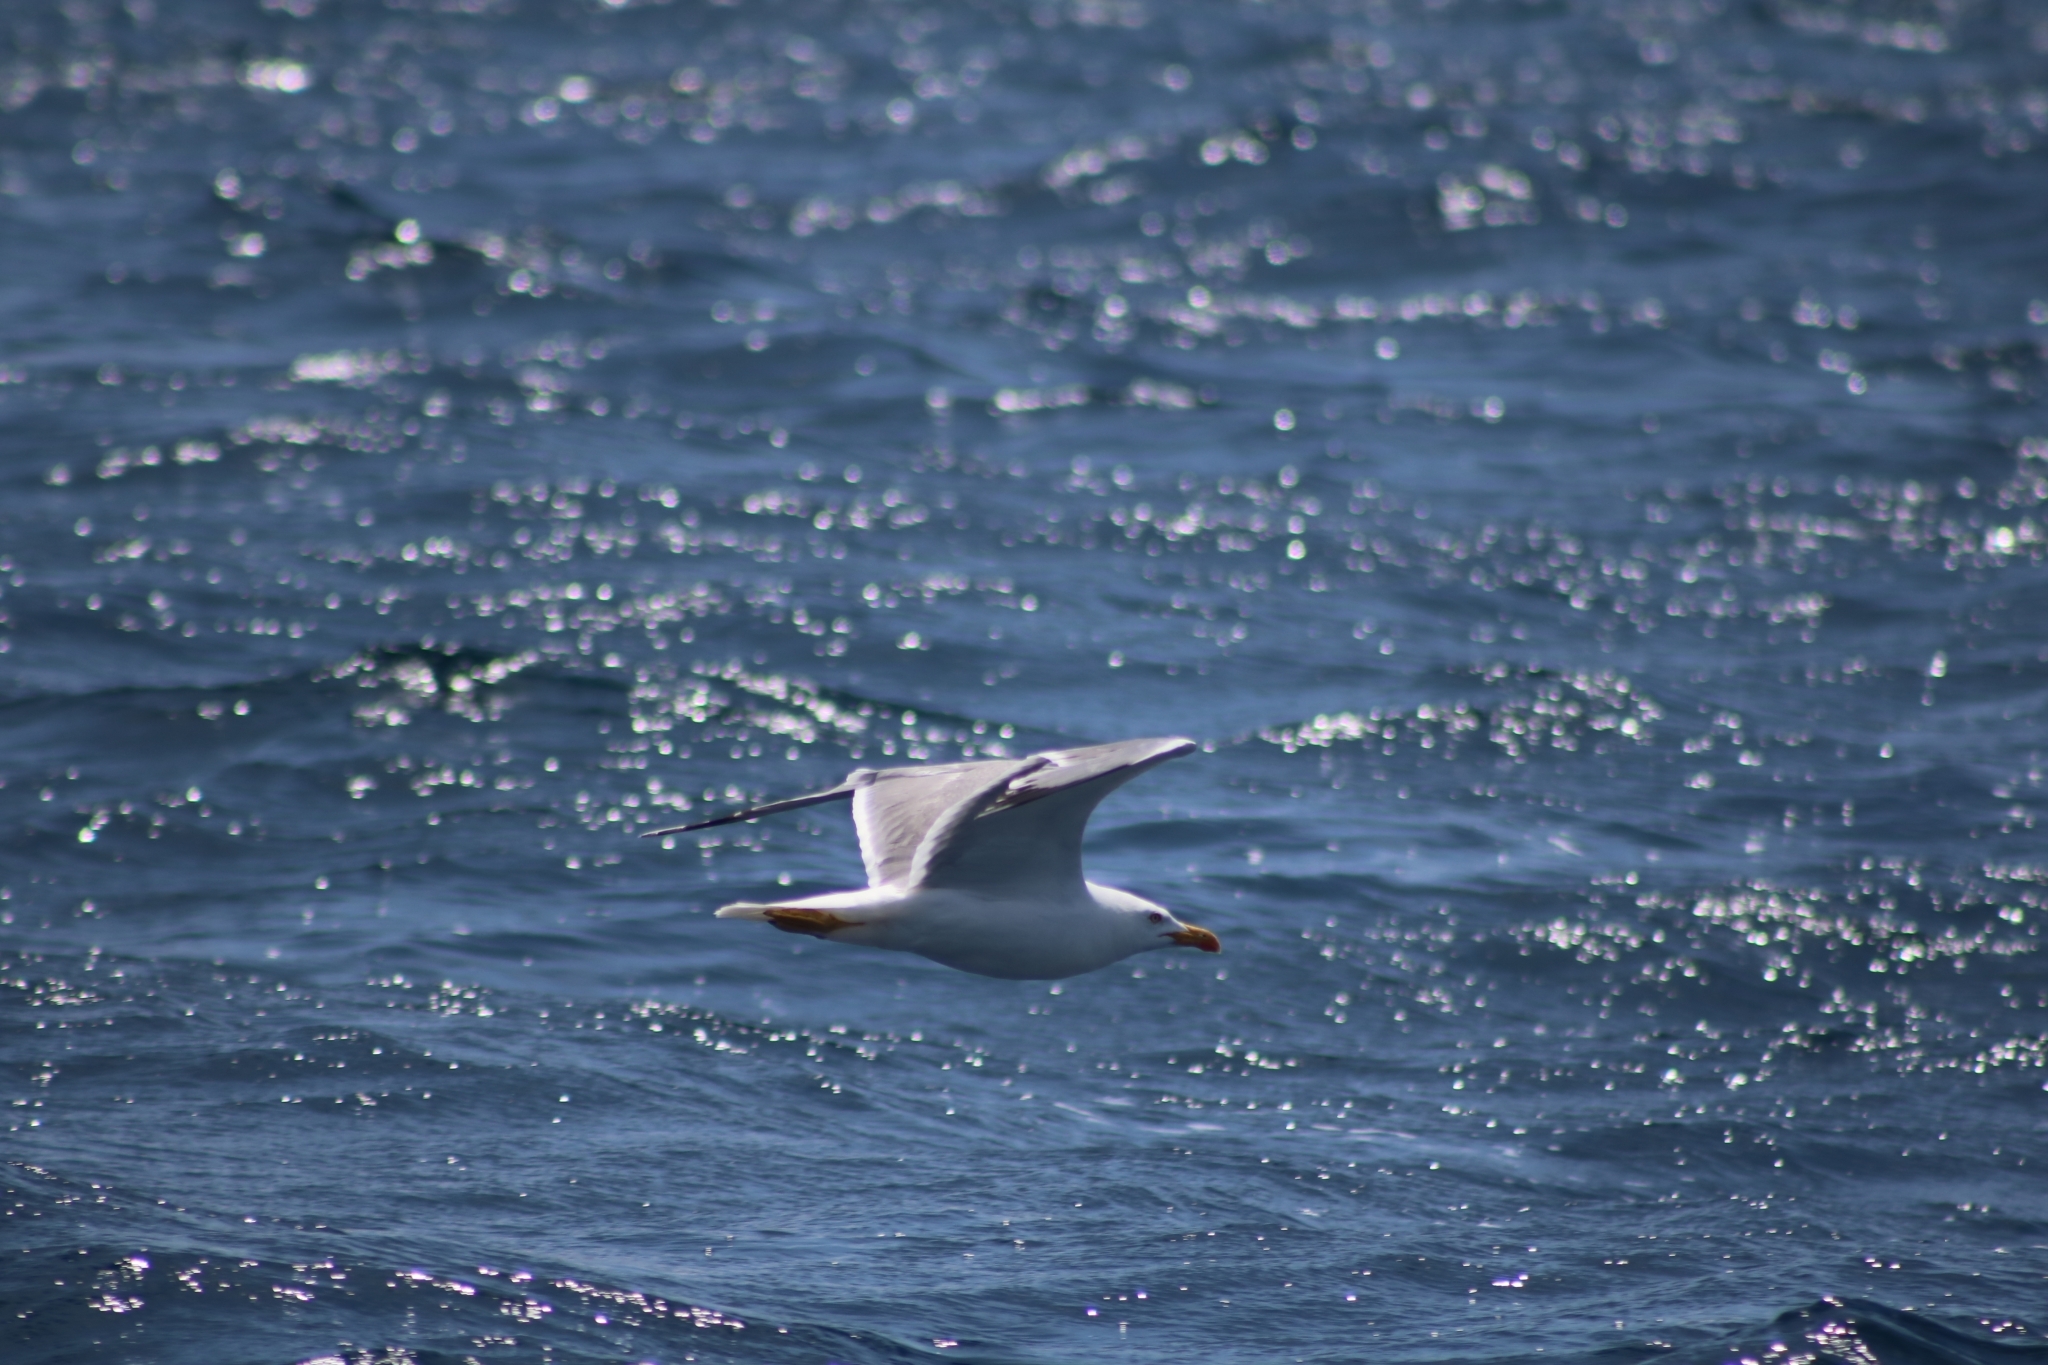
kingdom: Animalia
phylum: Chordata
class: Aves
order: Charadriiformes
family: Laridae
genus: Larus
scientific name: Larus michahellis
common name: Yellow-legged gull
